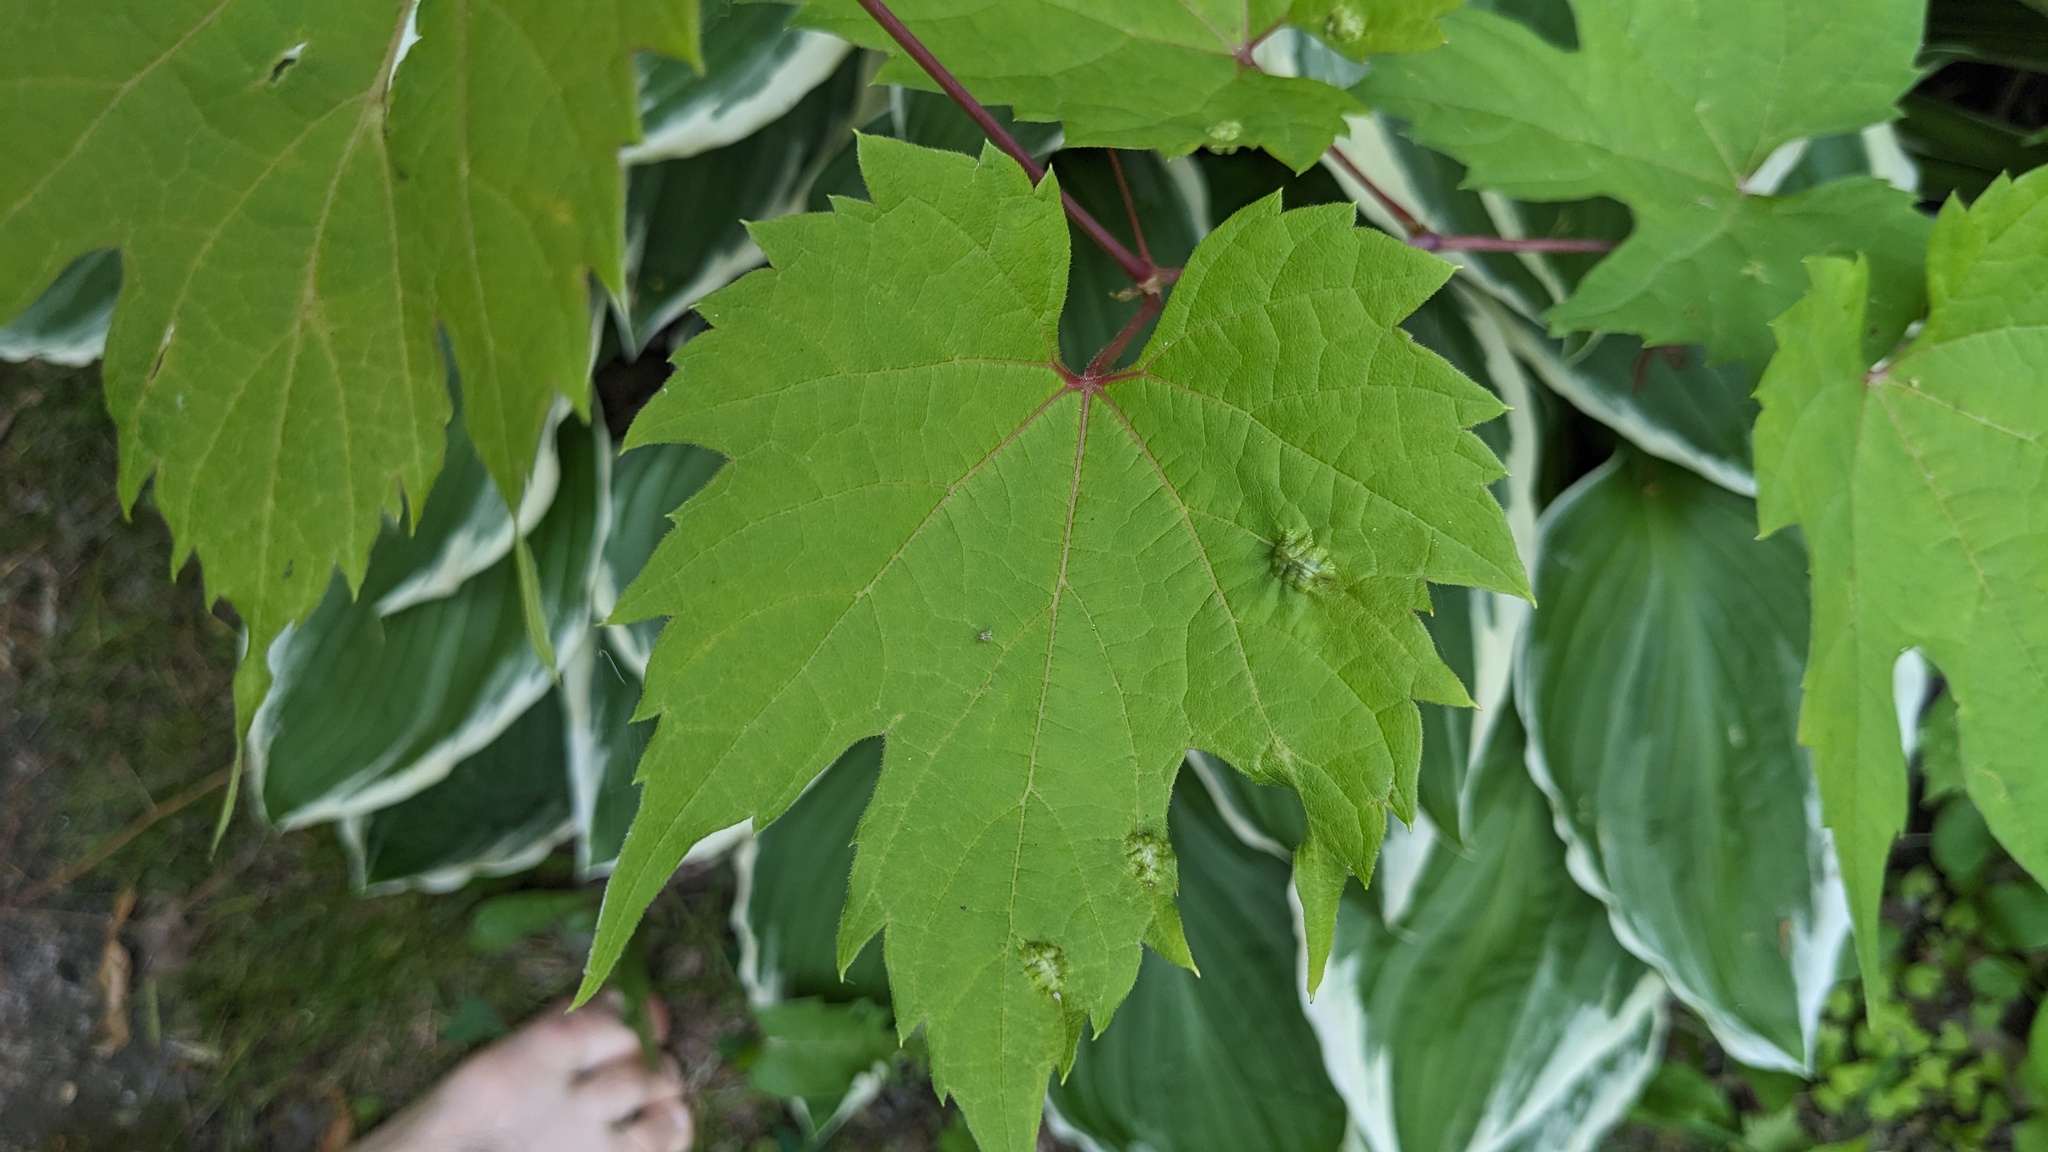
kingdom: Animalia
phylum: Arthropoda
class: Insecta
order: Lepidoptera
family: Heliozelidae
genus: Heliozela
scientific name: Heliozela aesella
